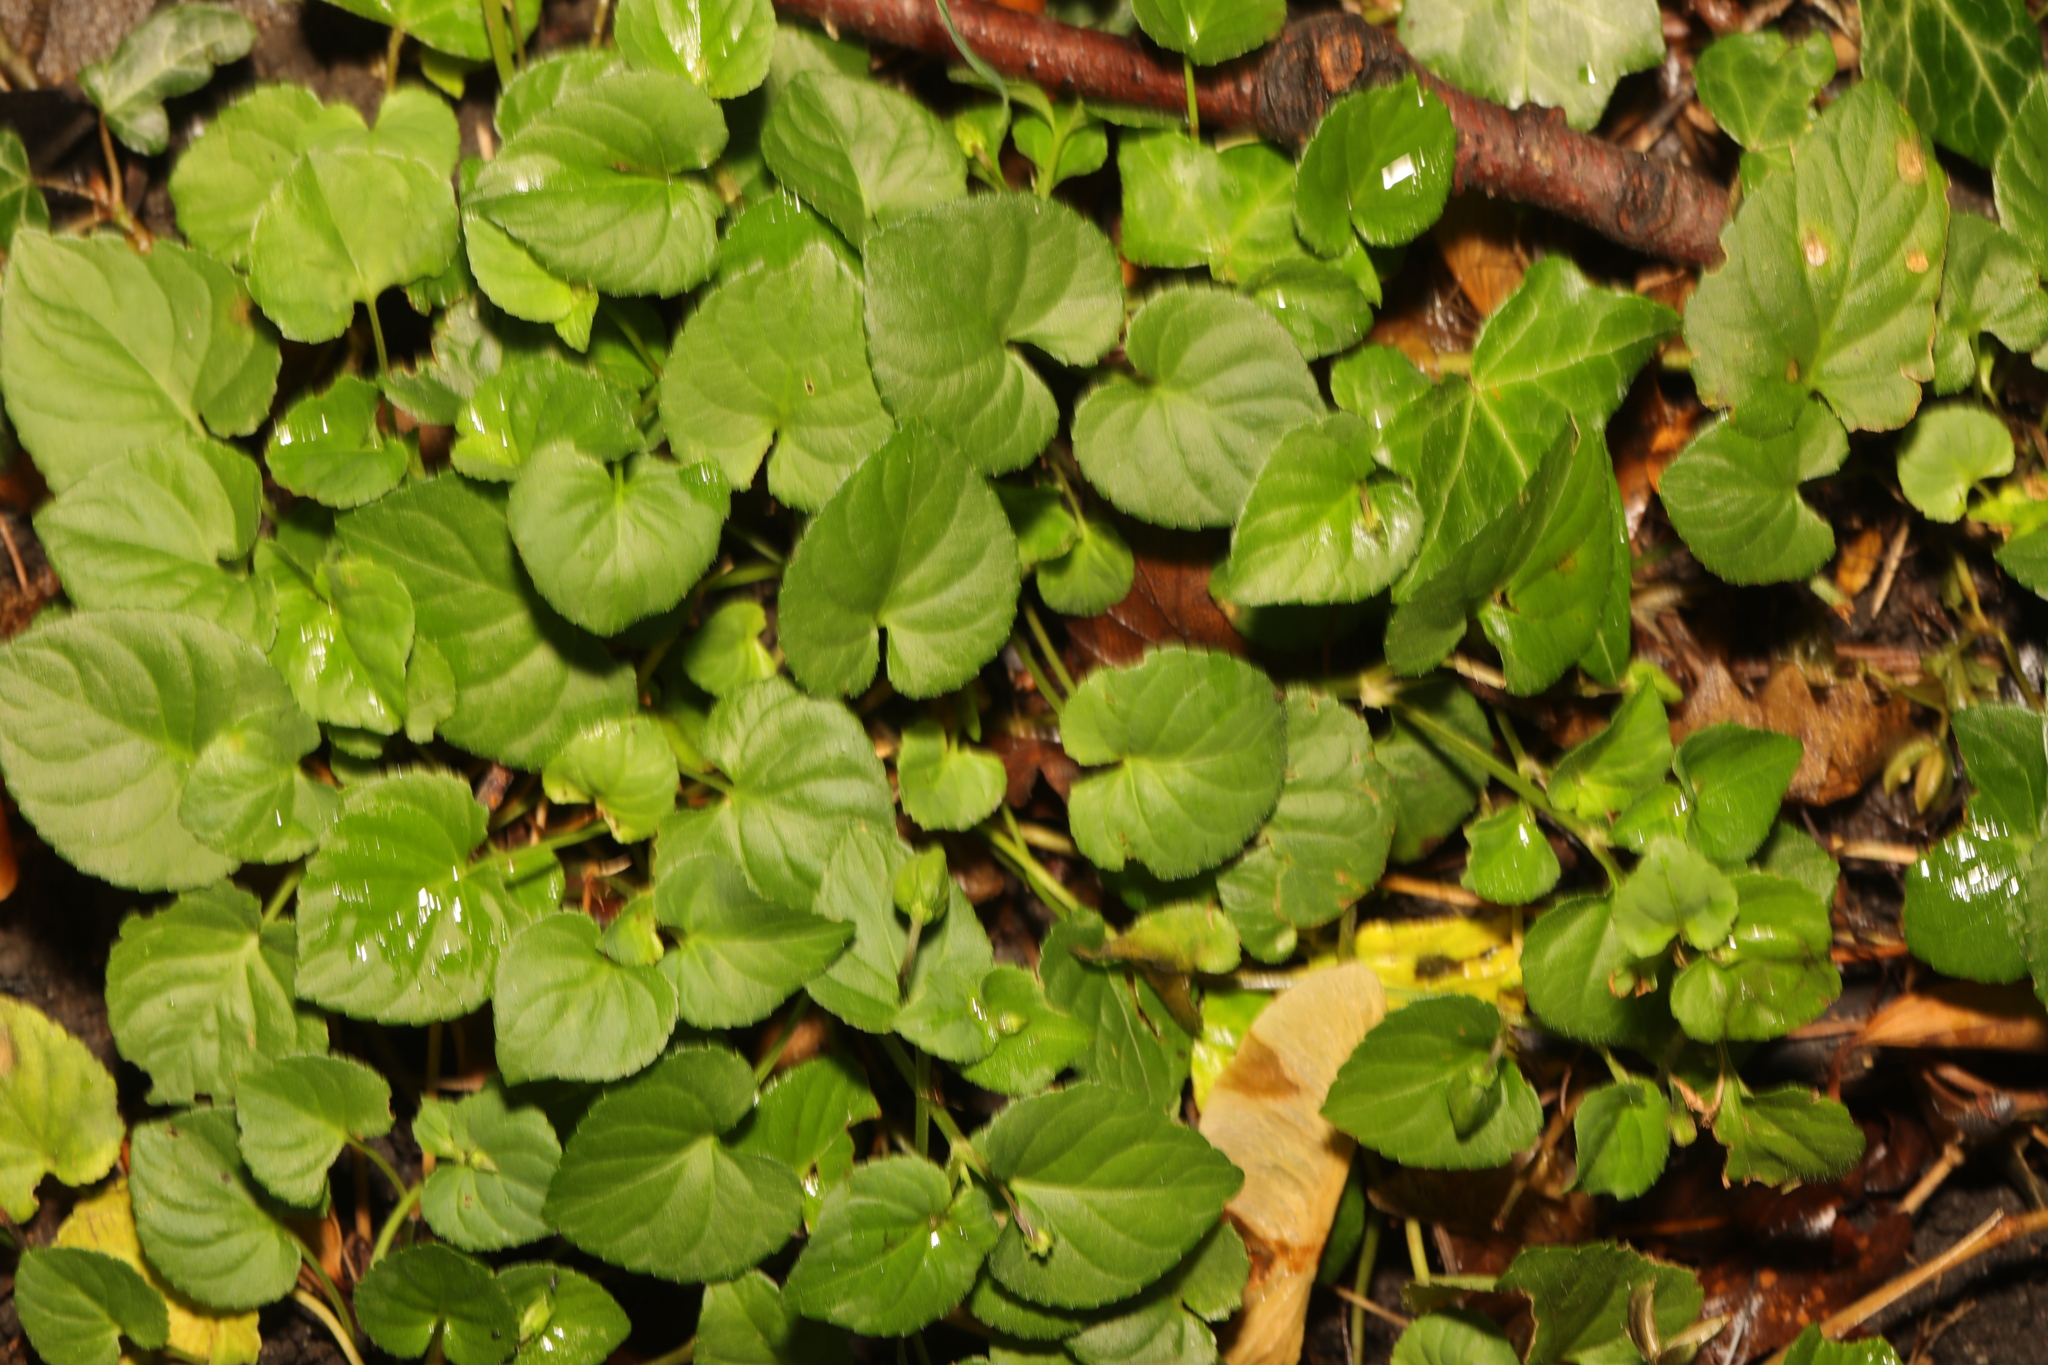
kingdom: Plantae
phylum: Tracheophyta
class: Magnoliopsida
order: Malpighiales
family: Violaceae
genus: Viola
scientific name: Viola riviniana
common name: Common dog-violet
